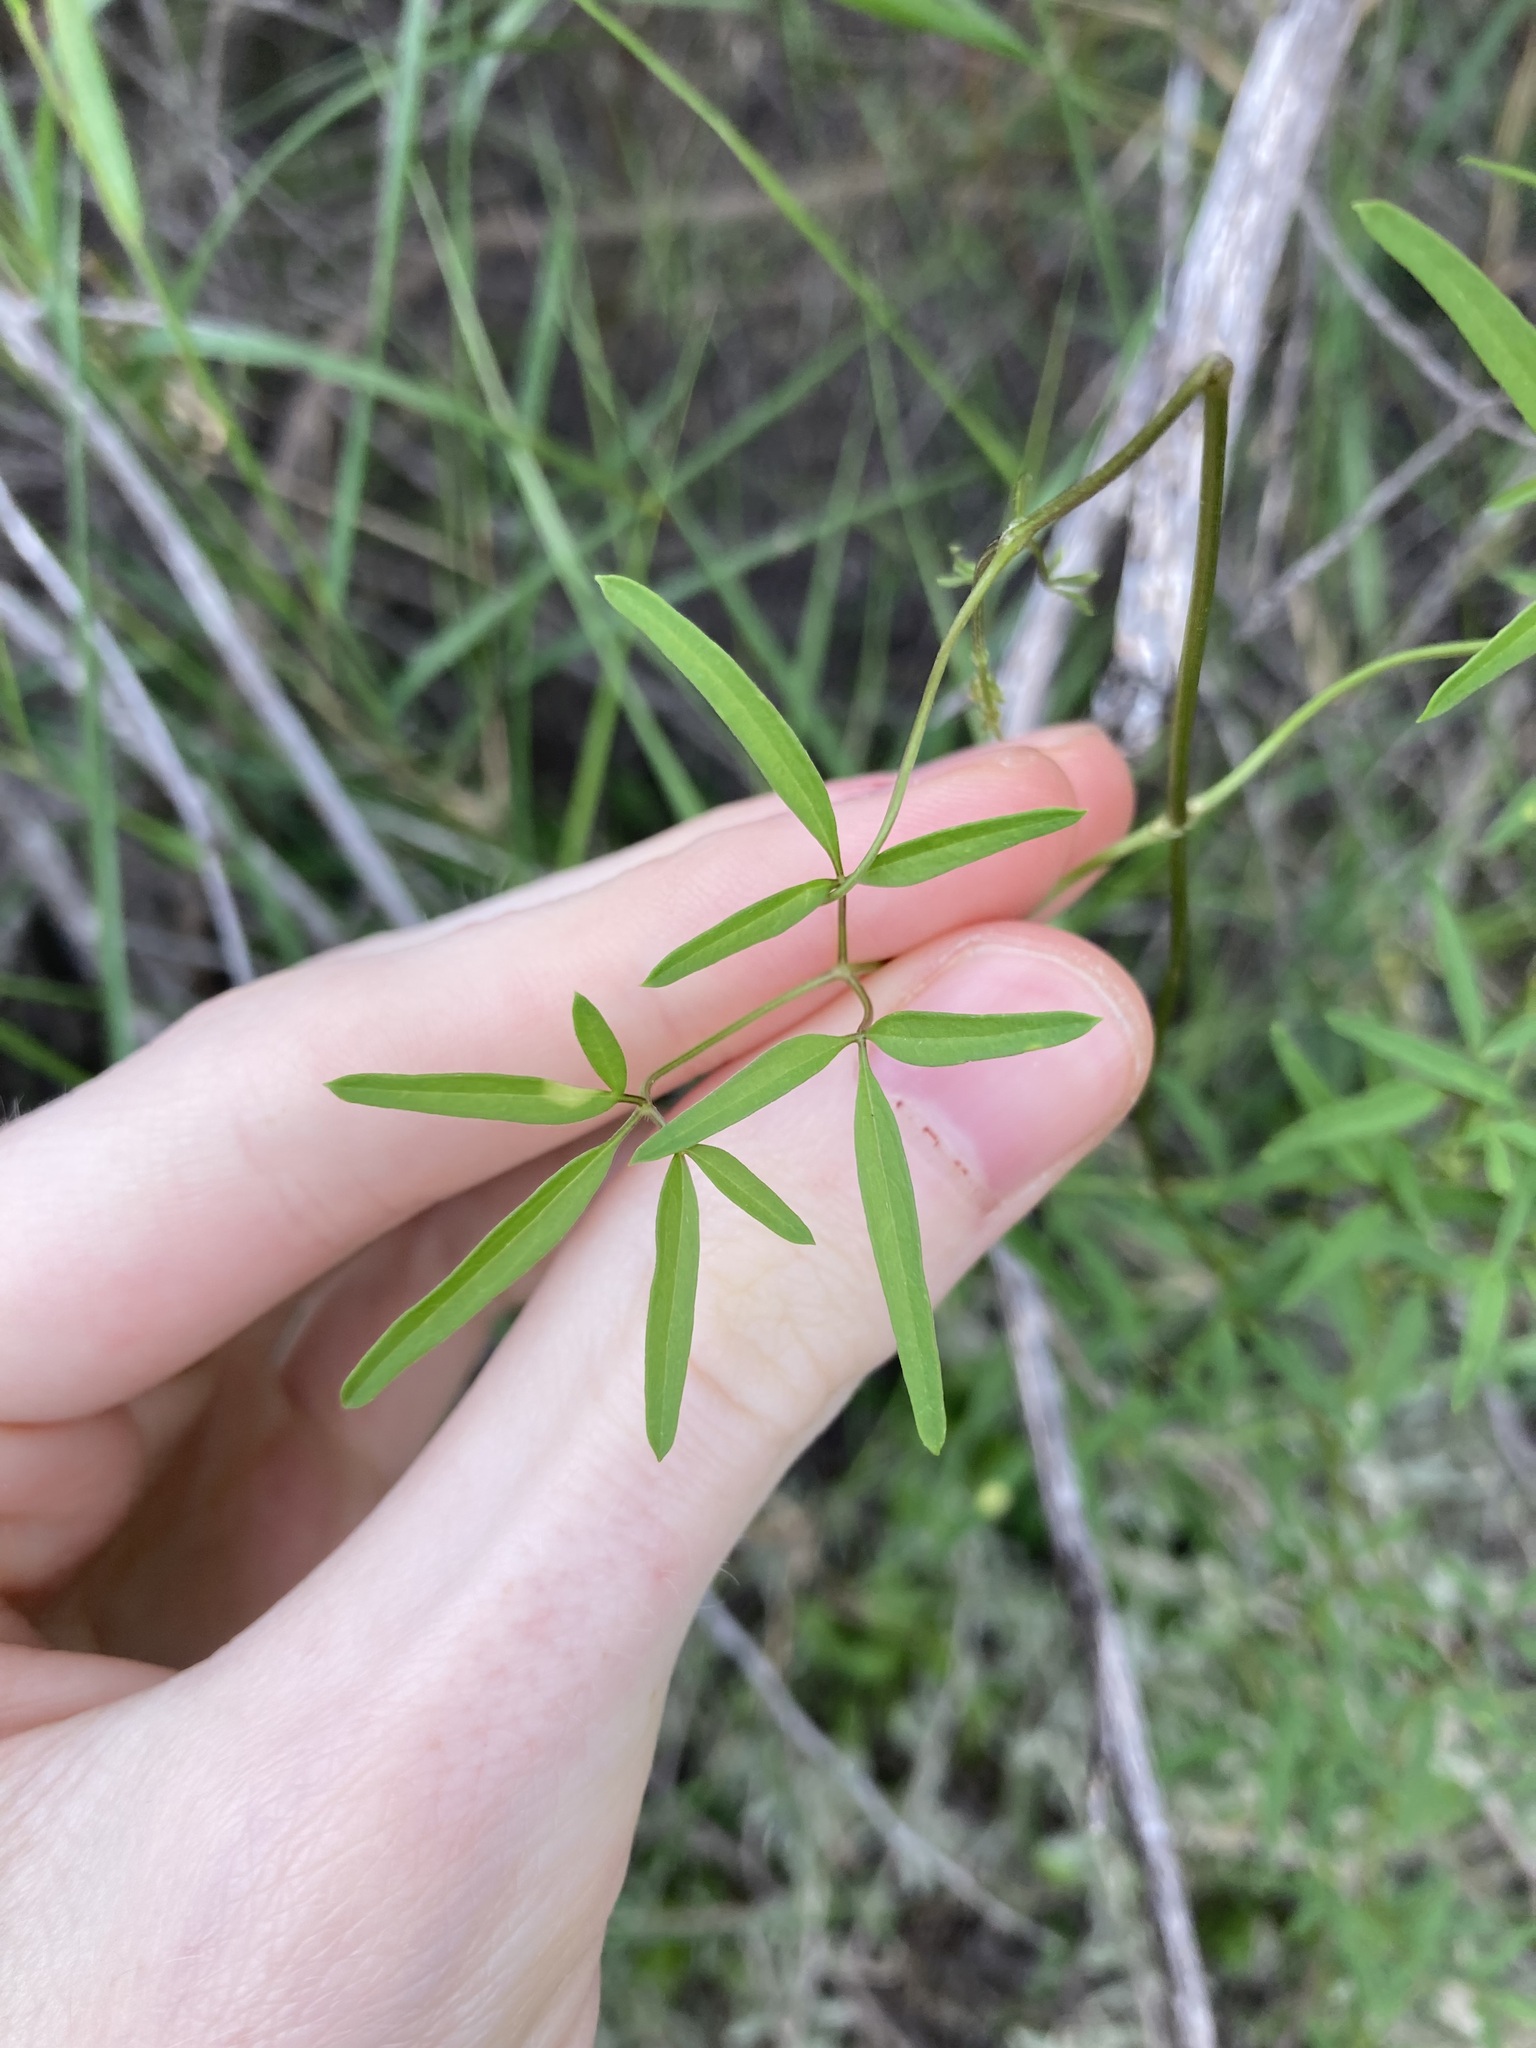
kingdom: Plantae
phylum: Tracheophyta
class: Magnoliopsida
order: Ranunculales
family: Ranunculaceae
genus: Clematis
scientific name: Clematis linearifolia
